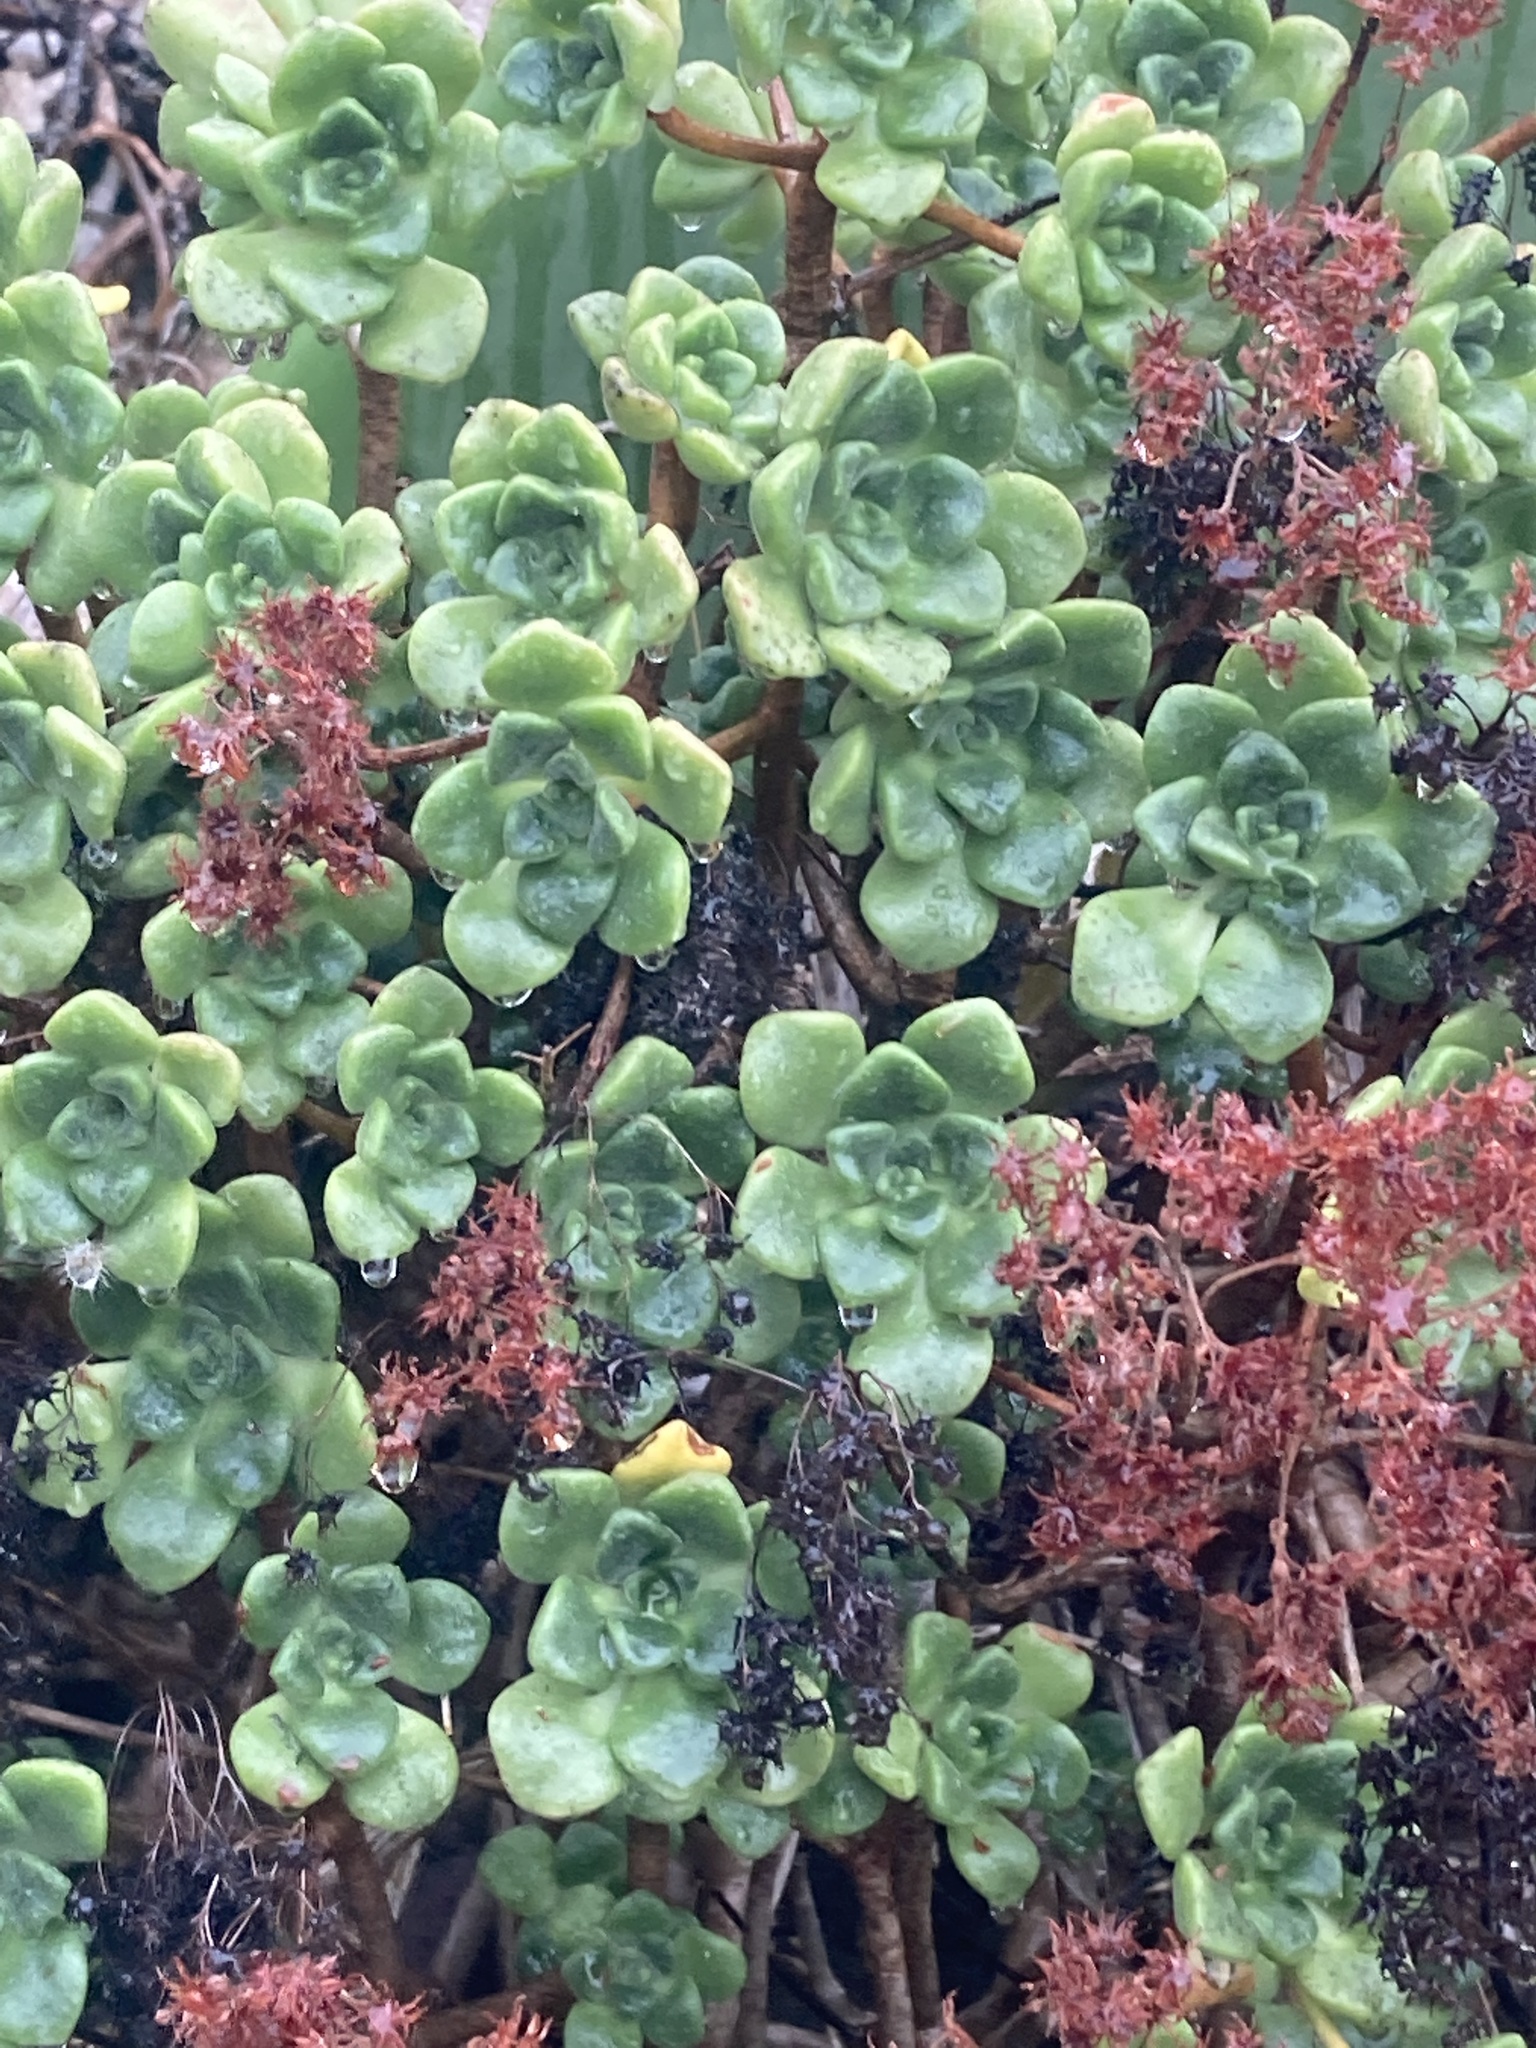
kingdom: Plantae
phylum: Tracheophyta
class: Magnoliopsida
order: Saxifragales
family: Crassulaceae
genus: Aeonium
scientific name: Aeonium lindleyi
